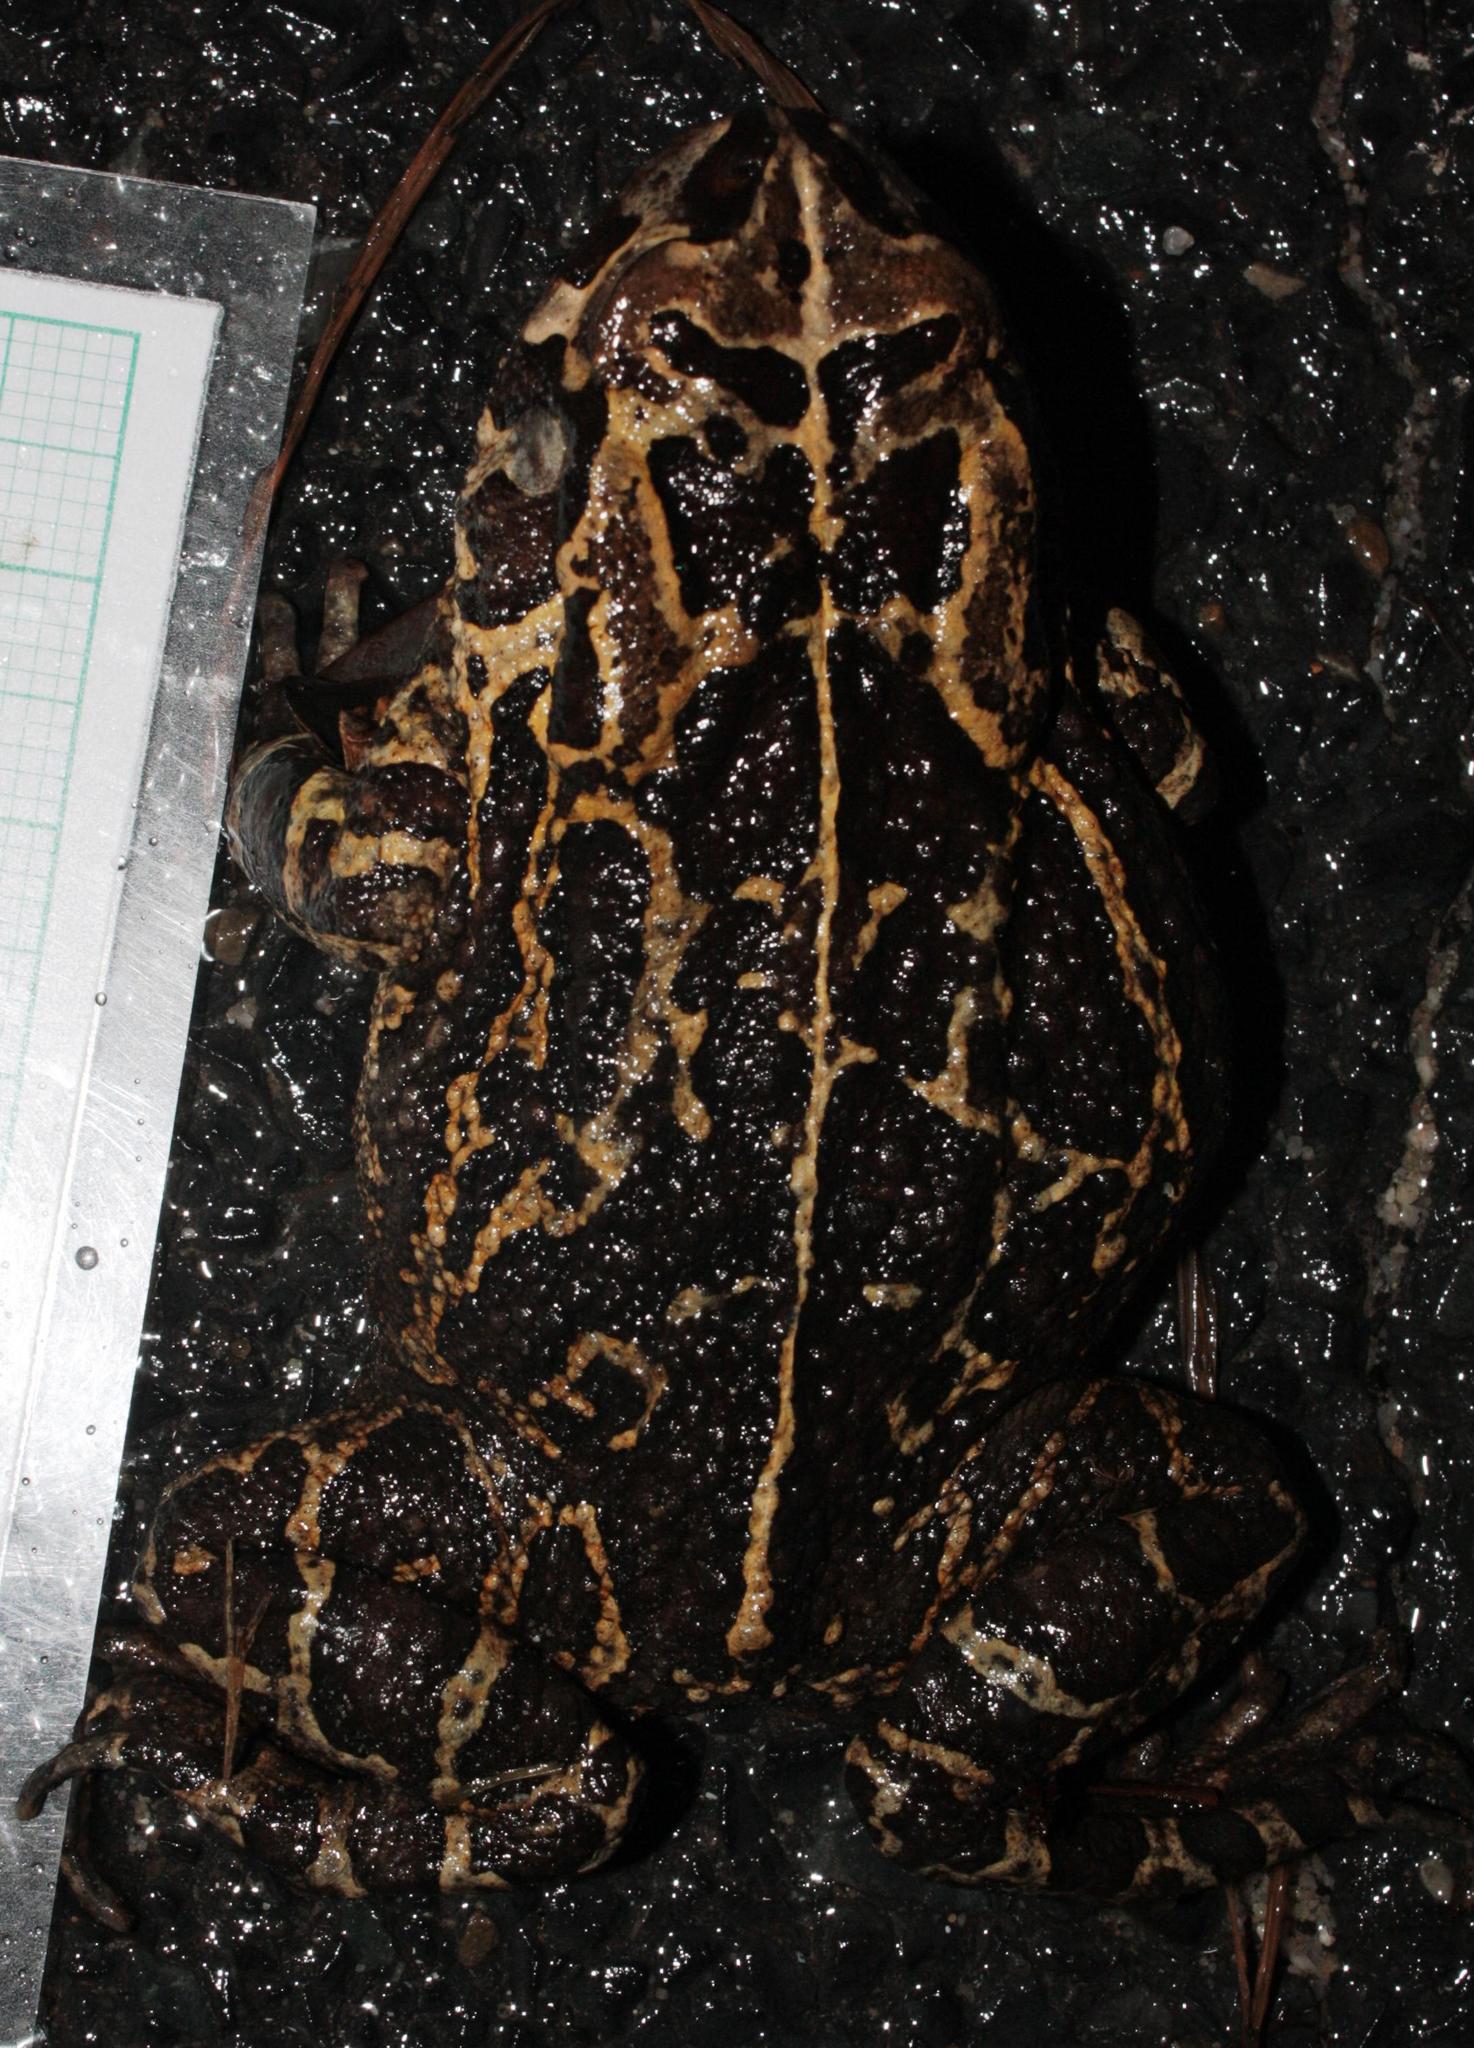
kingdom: Animalia
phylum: Chordata
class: Amphibia
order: Anura
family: Bufonidae
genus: Sclerophrys
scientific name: Sclerophrys pantherina
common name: Panther toad
